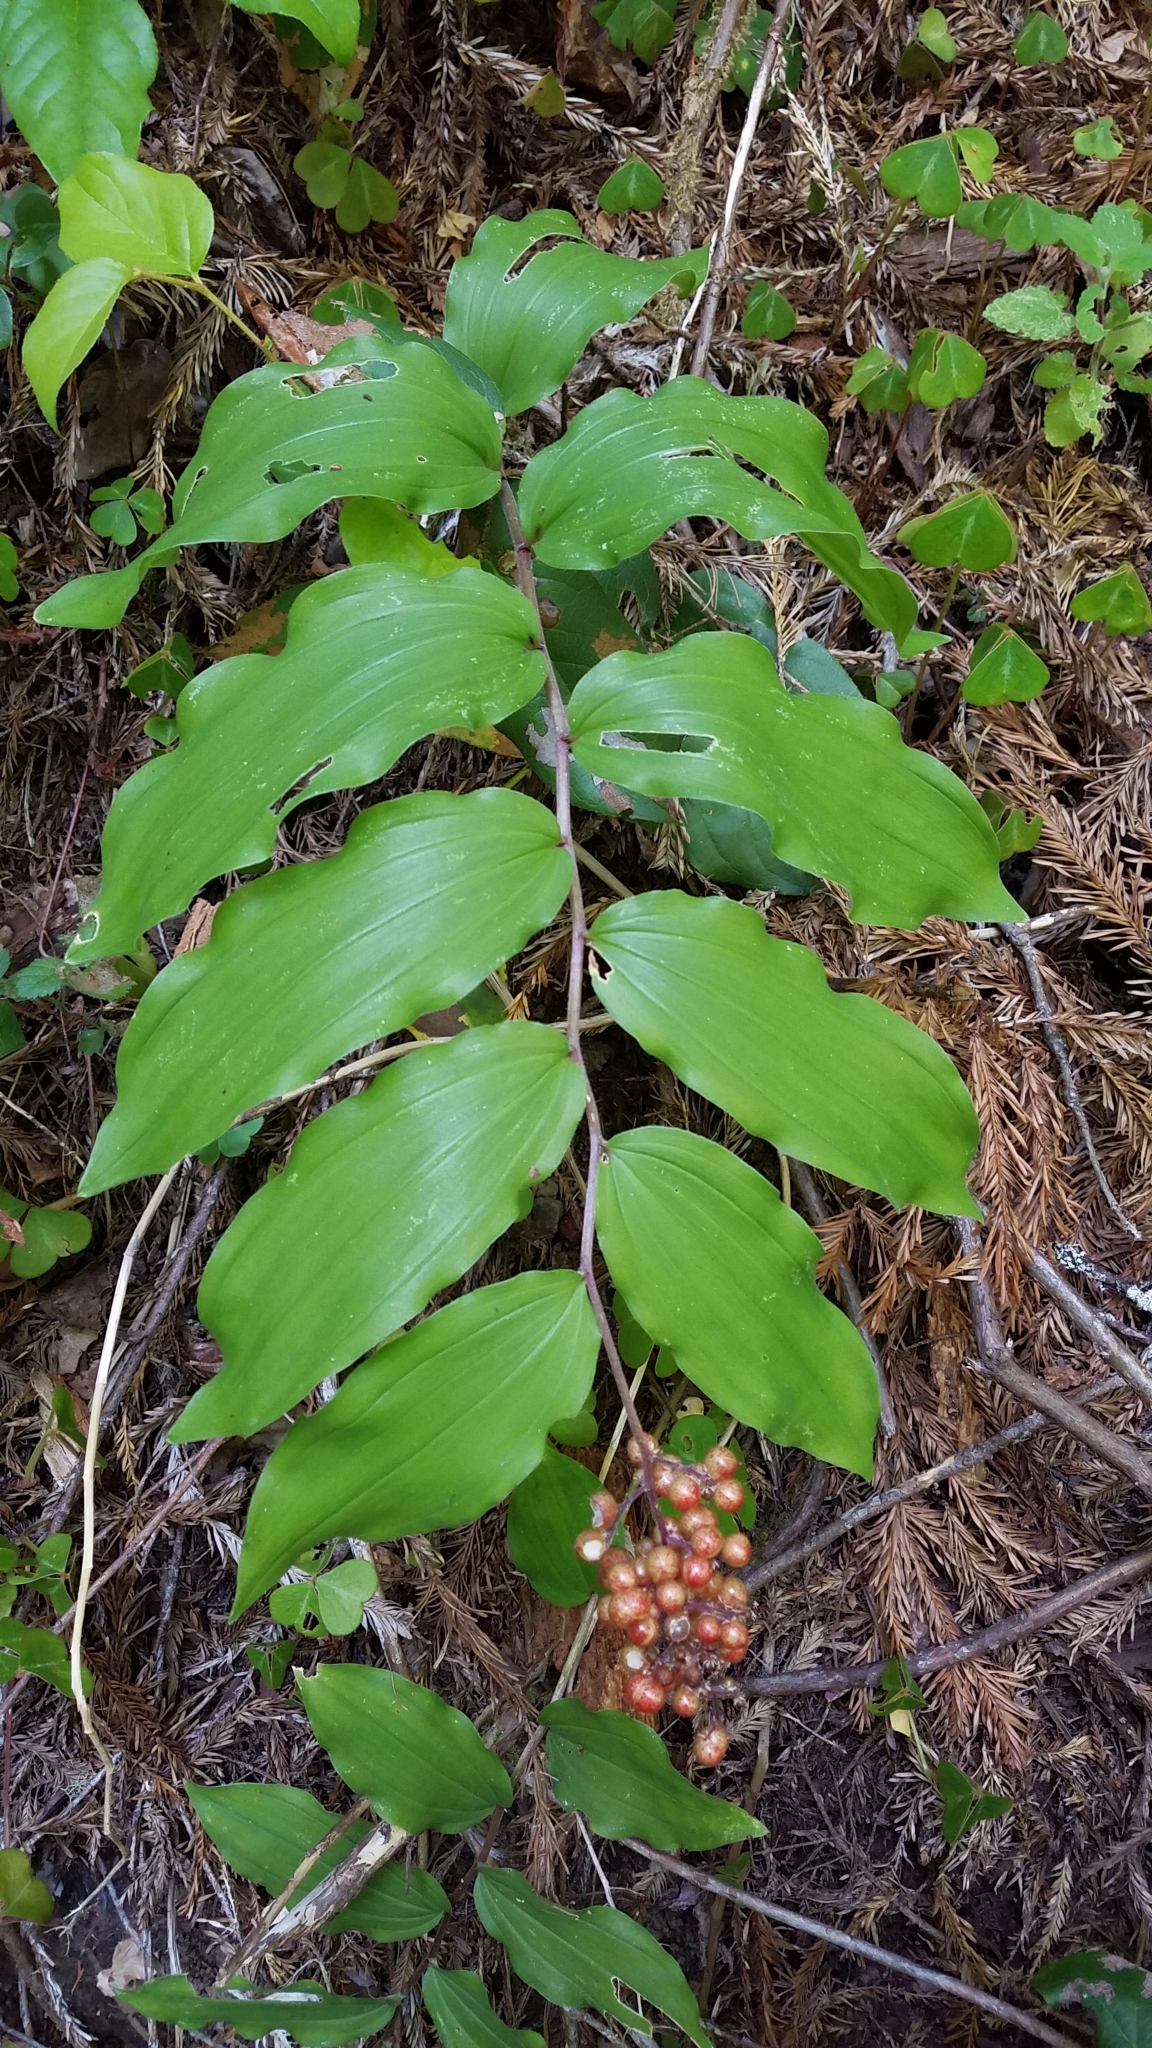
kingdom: Plantae
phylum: Tracheophyta
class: Liliopsida
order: Asparagales
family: Asparagaceae
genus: Maianthemum
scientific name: Maianthemum racemosum
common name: False spikenard
